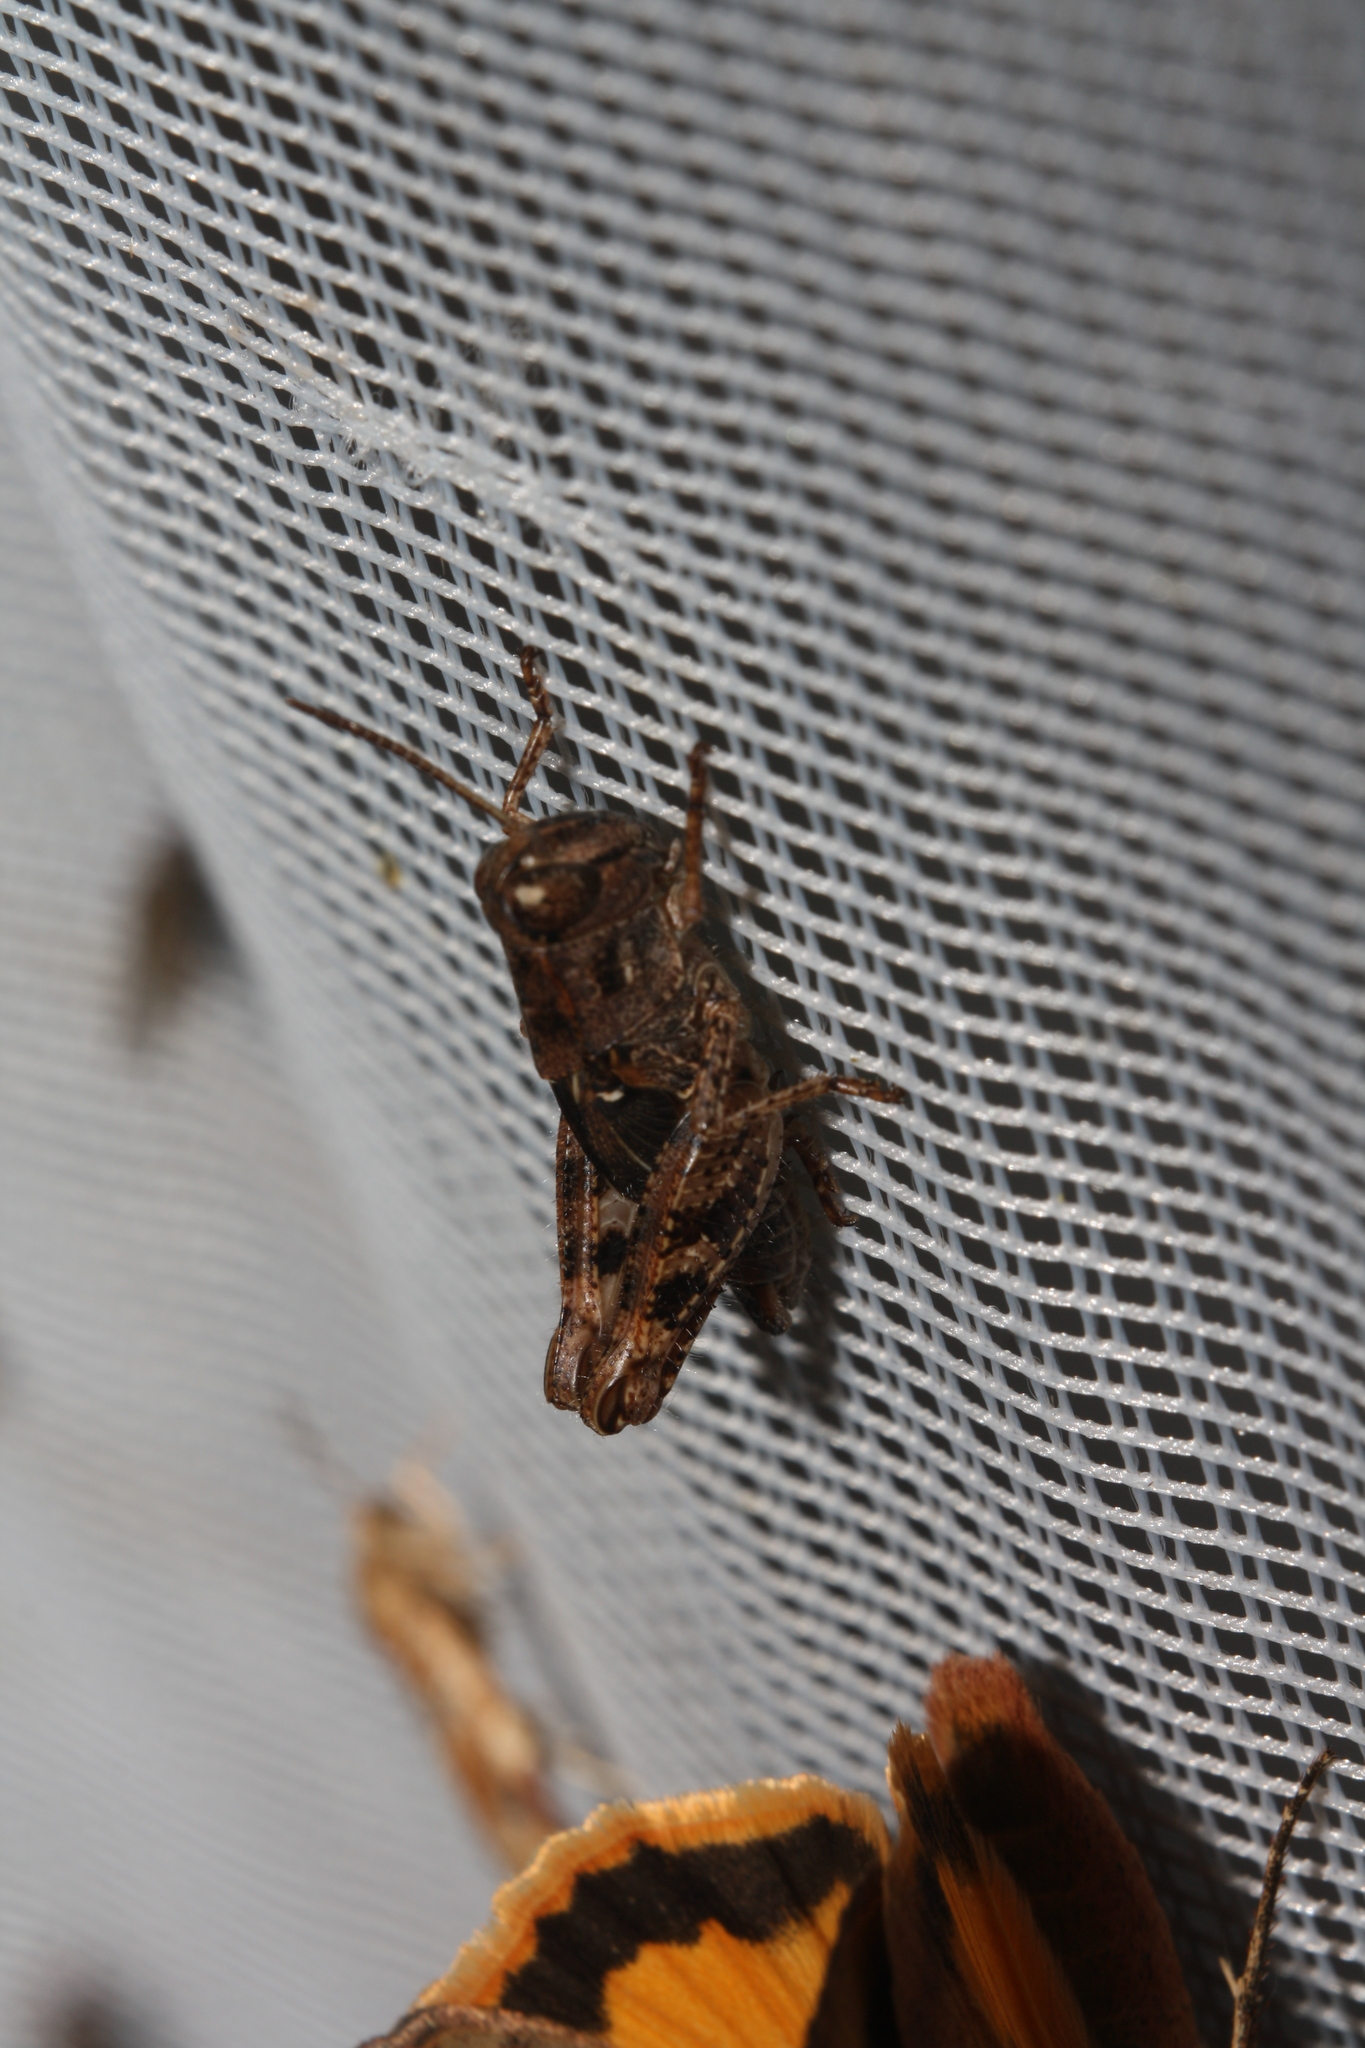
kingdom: Animalia
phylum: Arthropoda
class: Insecta
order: Orthoptera
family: Acrididae
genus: Calliptamus
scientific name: Calliptamus italicus
